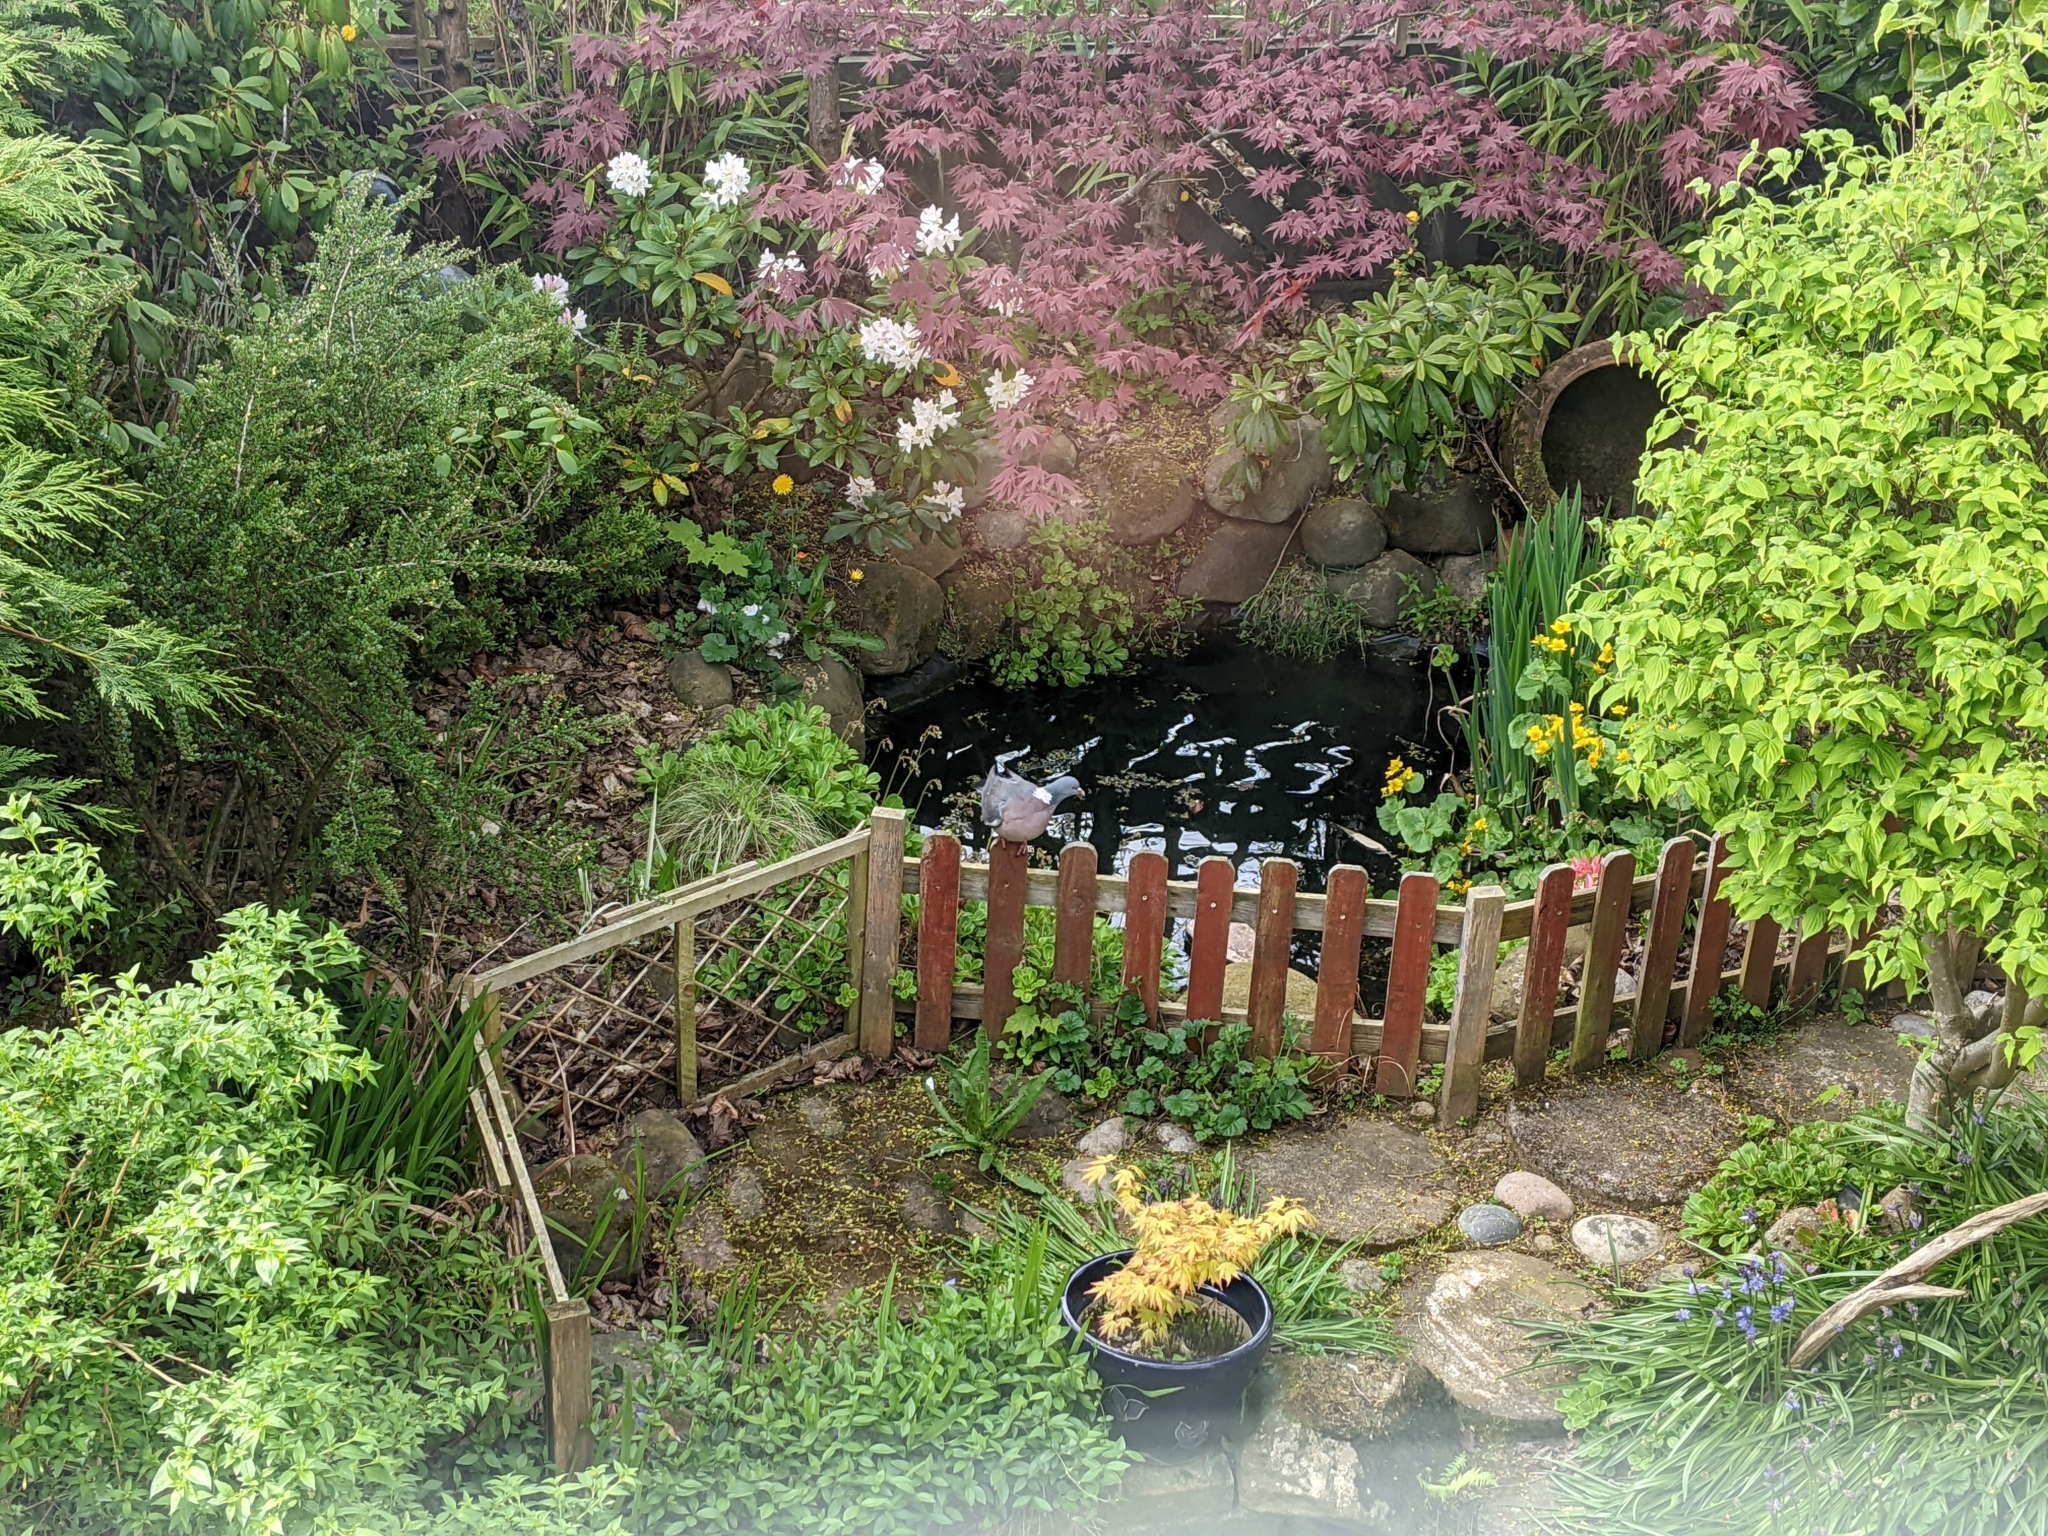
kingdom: Animalia
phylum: Chordata
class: Aves
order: Columbiformes
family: Columbidae
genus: Columba
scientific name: Columba palumbus
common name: Common wood pigeon
